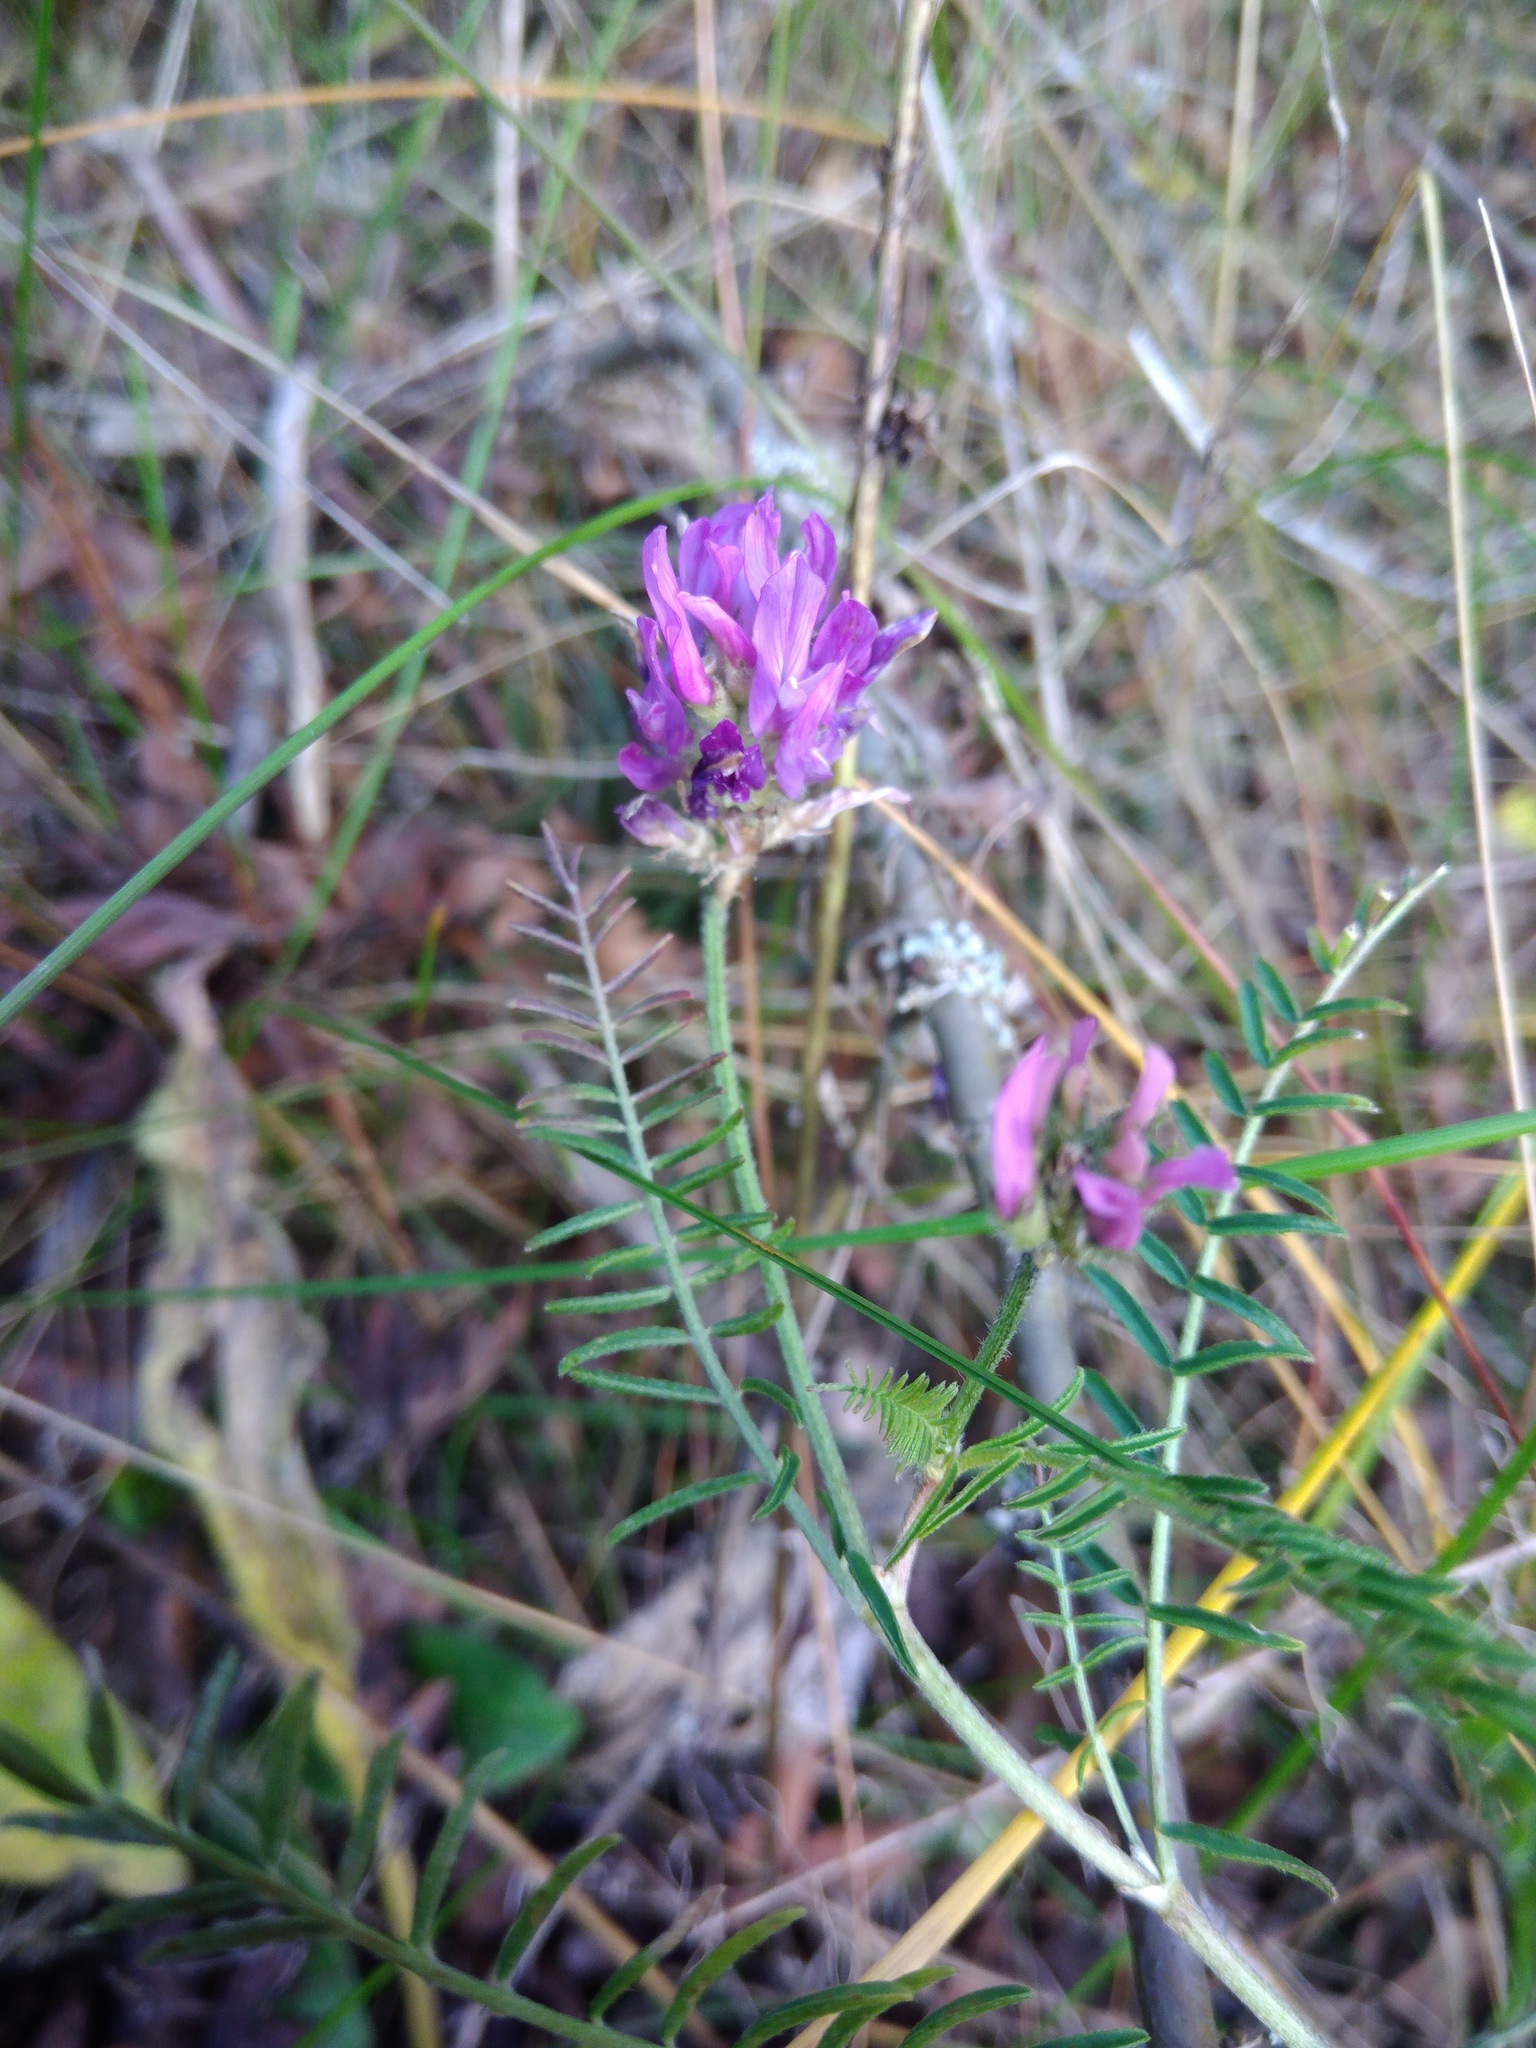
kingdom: Plantae
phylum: Tracheophyta
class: Magnoliopsida
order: Fabales
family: Fabaceae
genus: Astragalus
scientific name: Astragalus onobrychis
